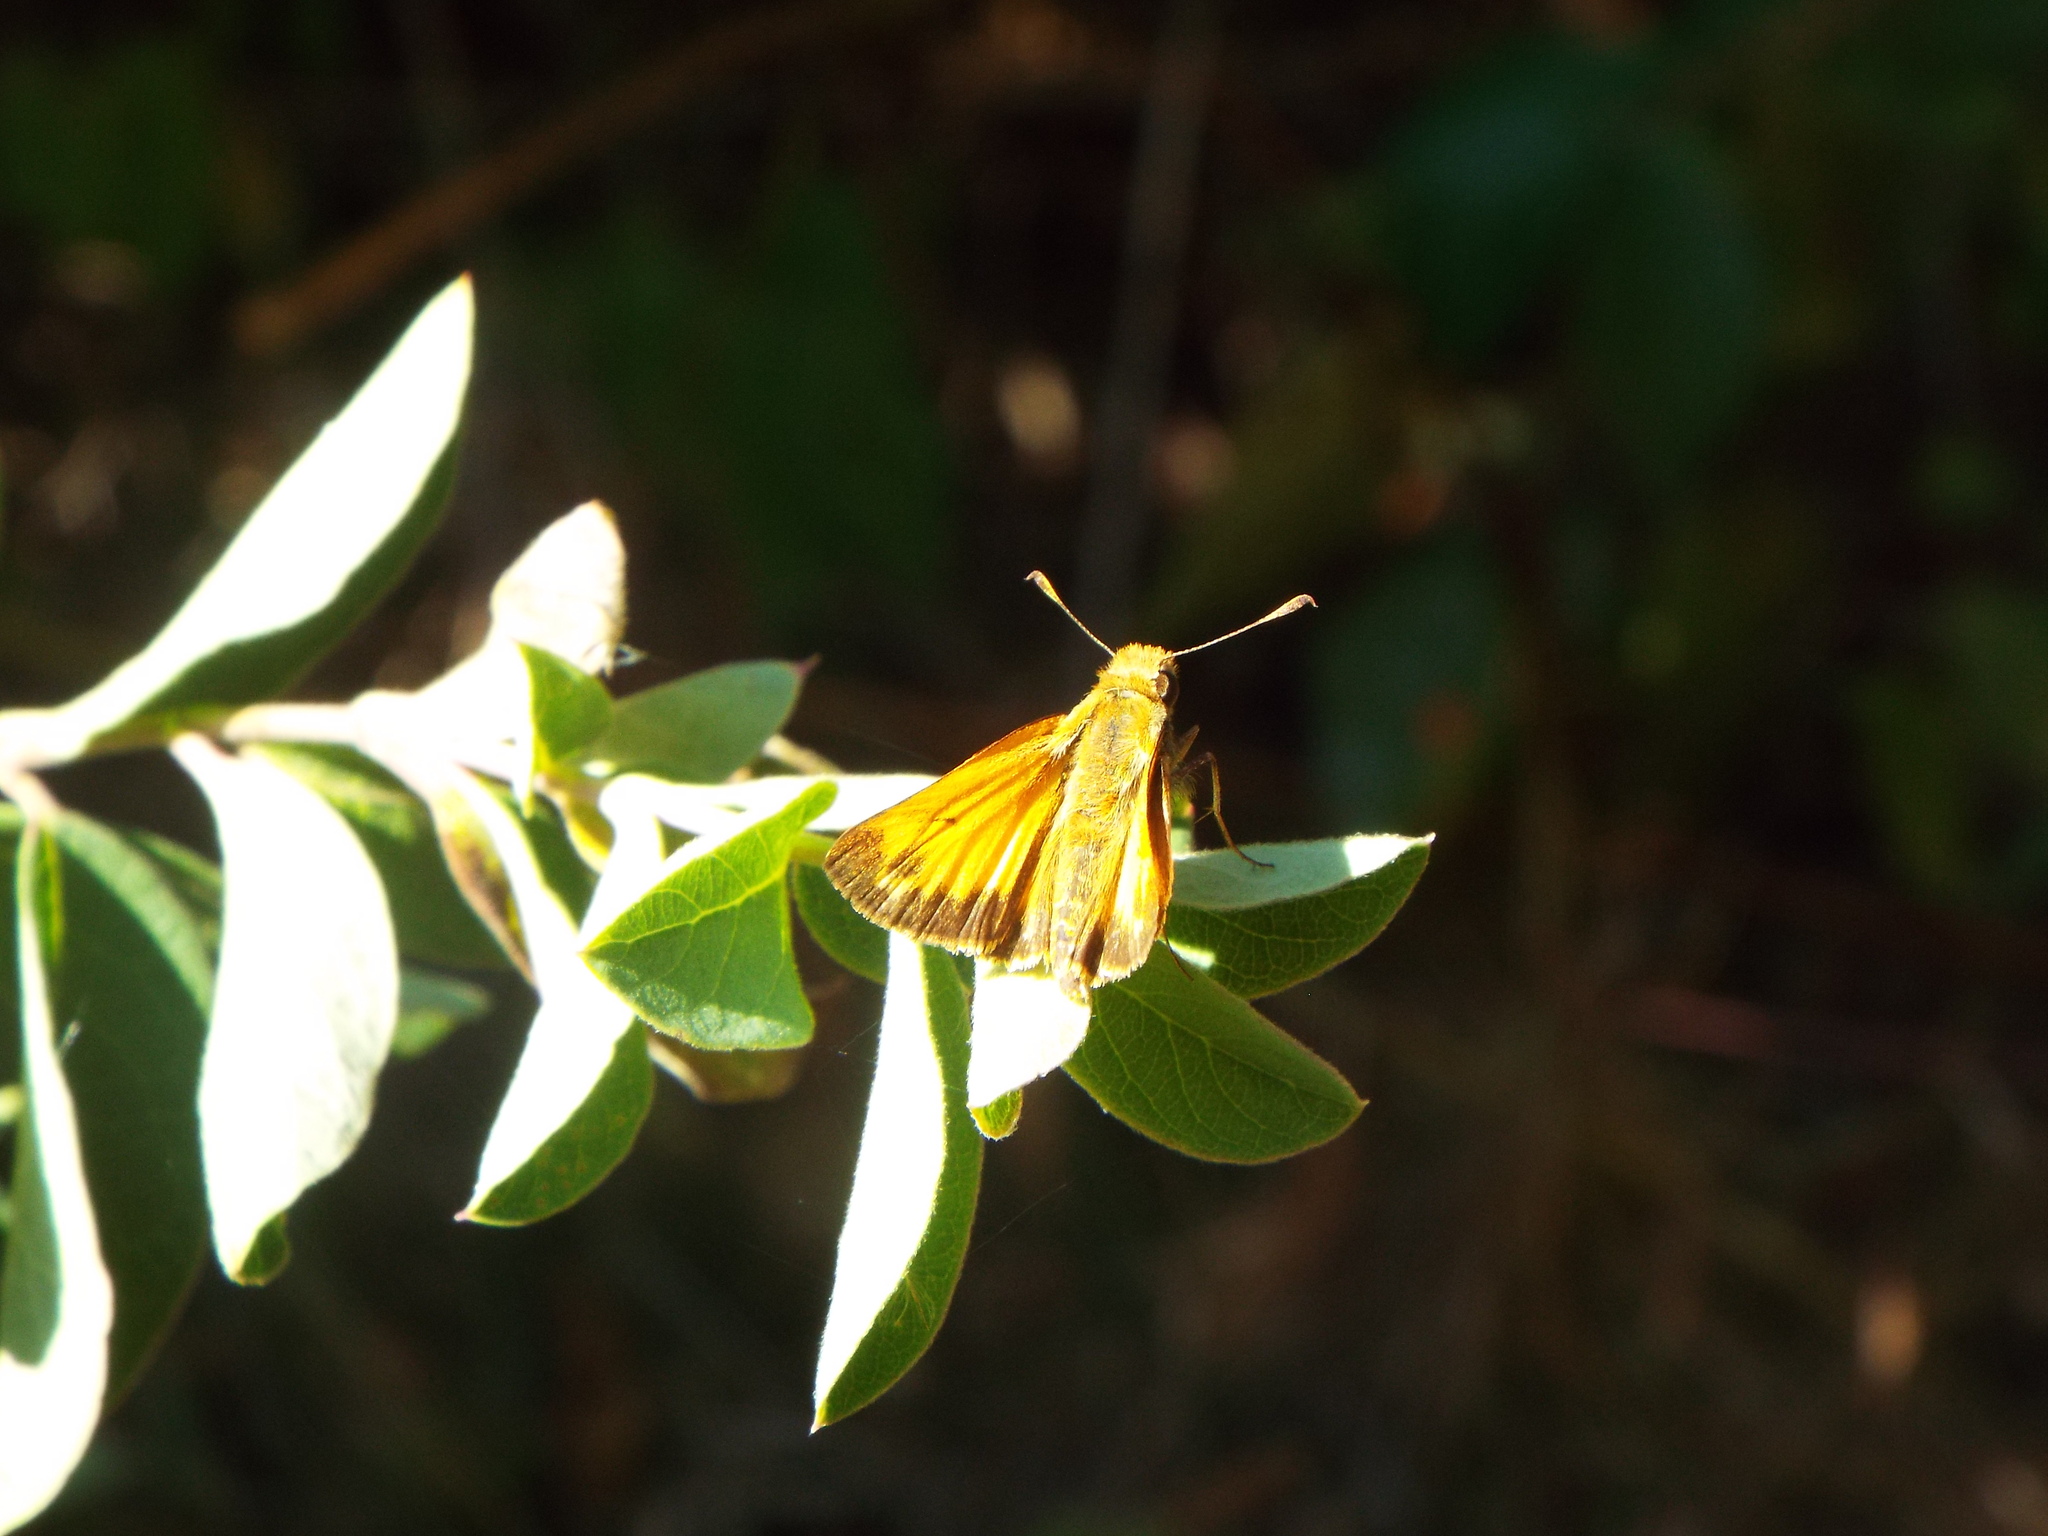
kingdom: Animalia
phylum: Arthropoda
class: Insecta
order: Lepidoptera
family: Hesperiidae
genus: Lon
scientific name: Lon zabulon
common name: Zabulon skipper
